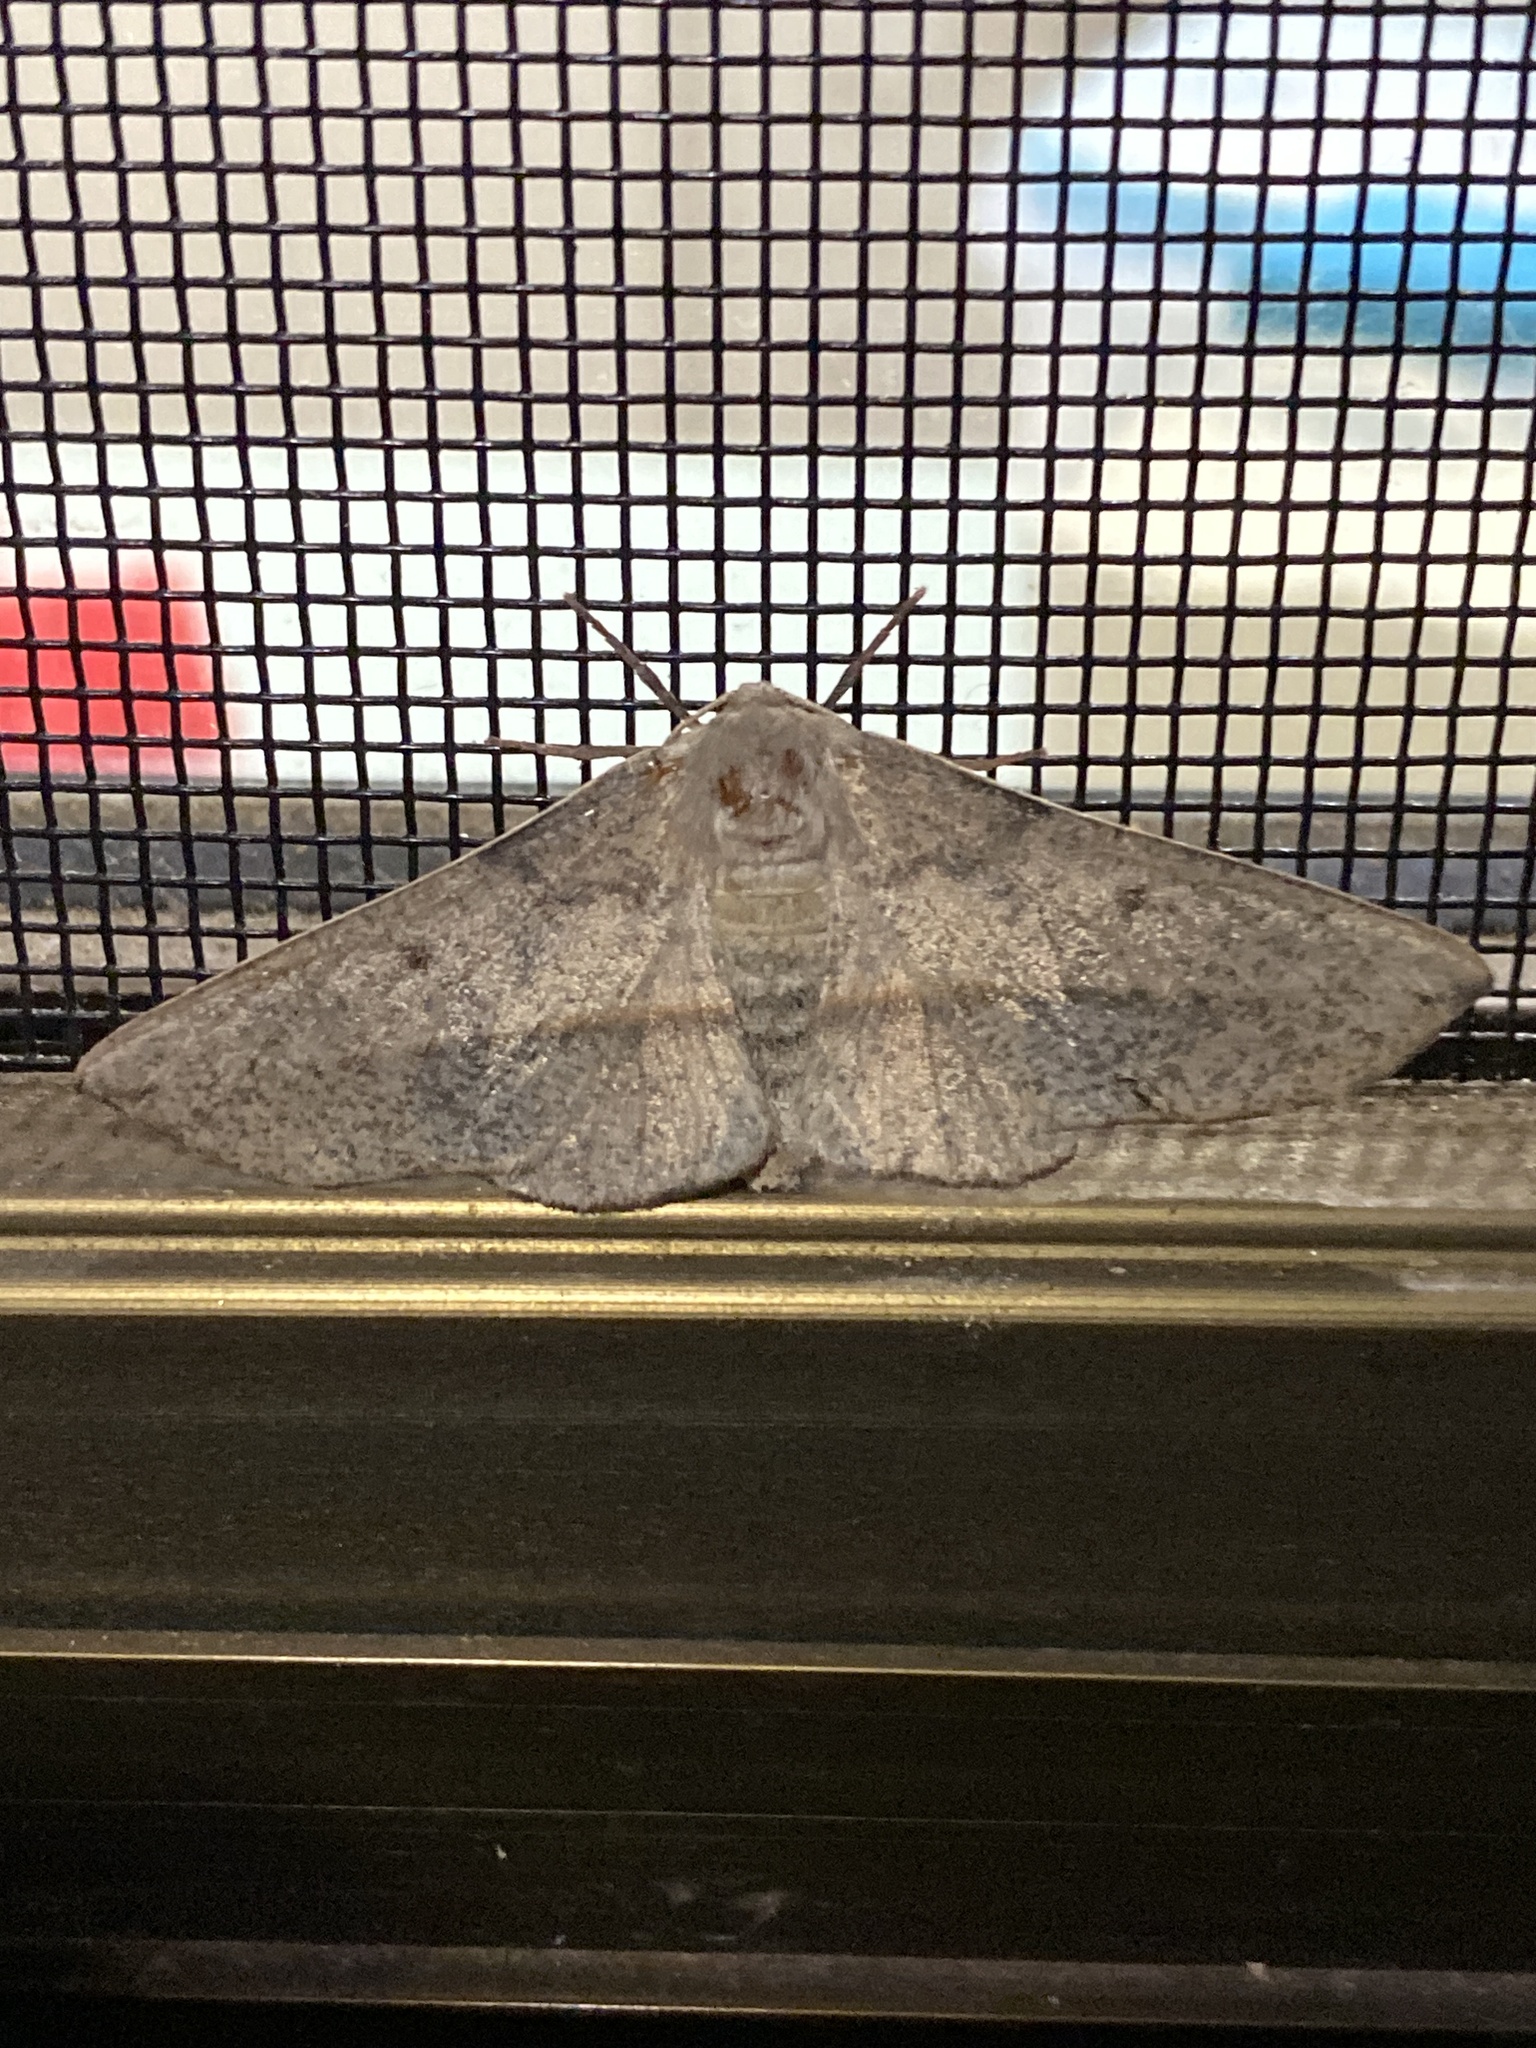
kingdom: Animalia
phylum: Arthropoda
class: Insecta
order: Lepidoptera
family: Geometridae
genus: Antictenia
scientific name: Antictenia punctunculus
